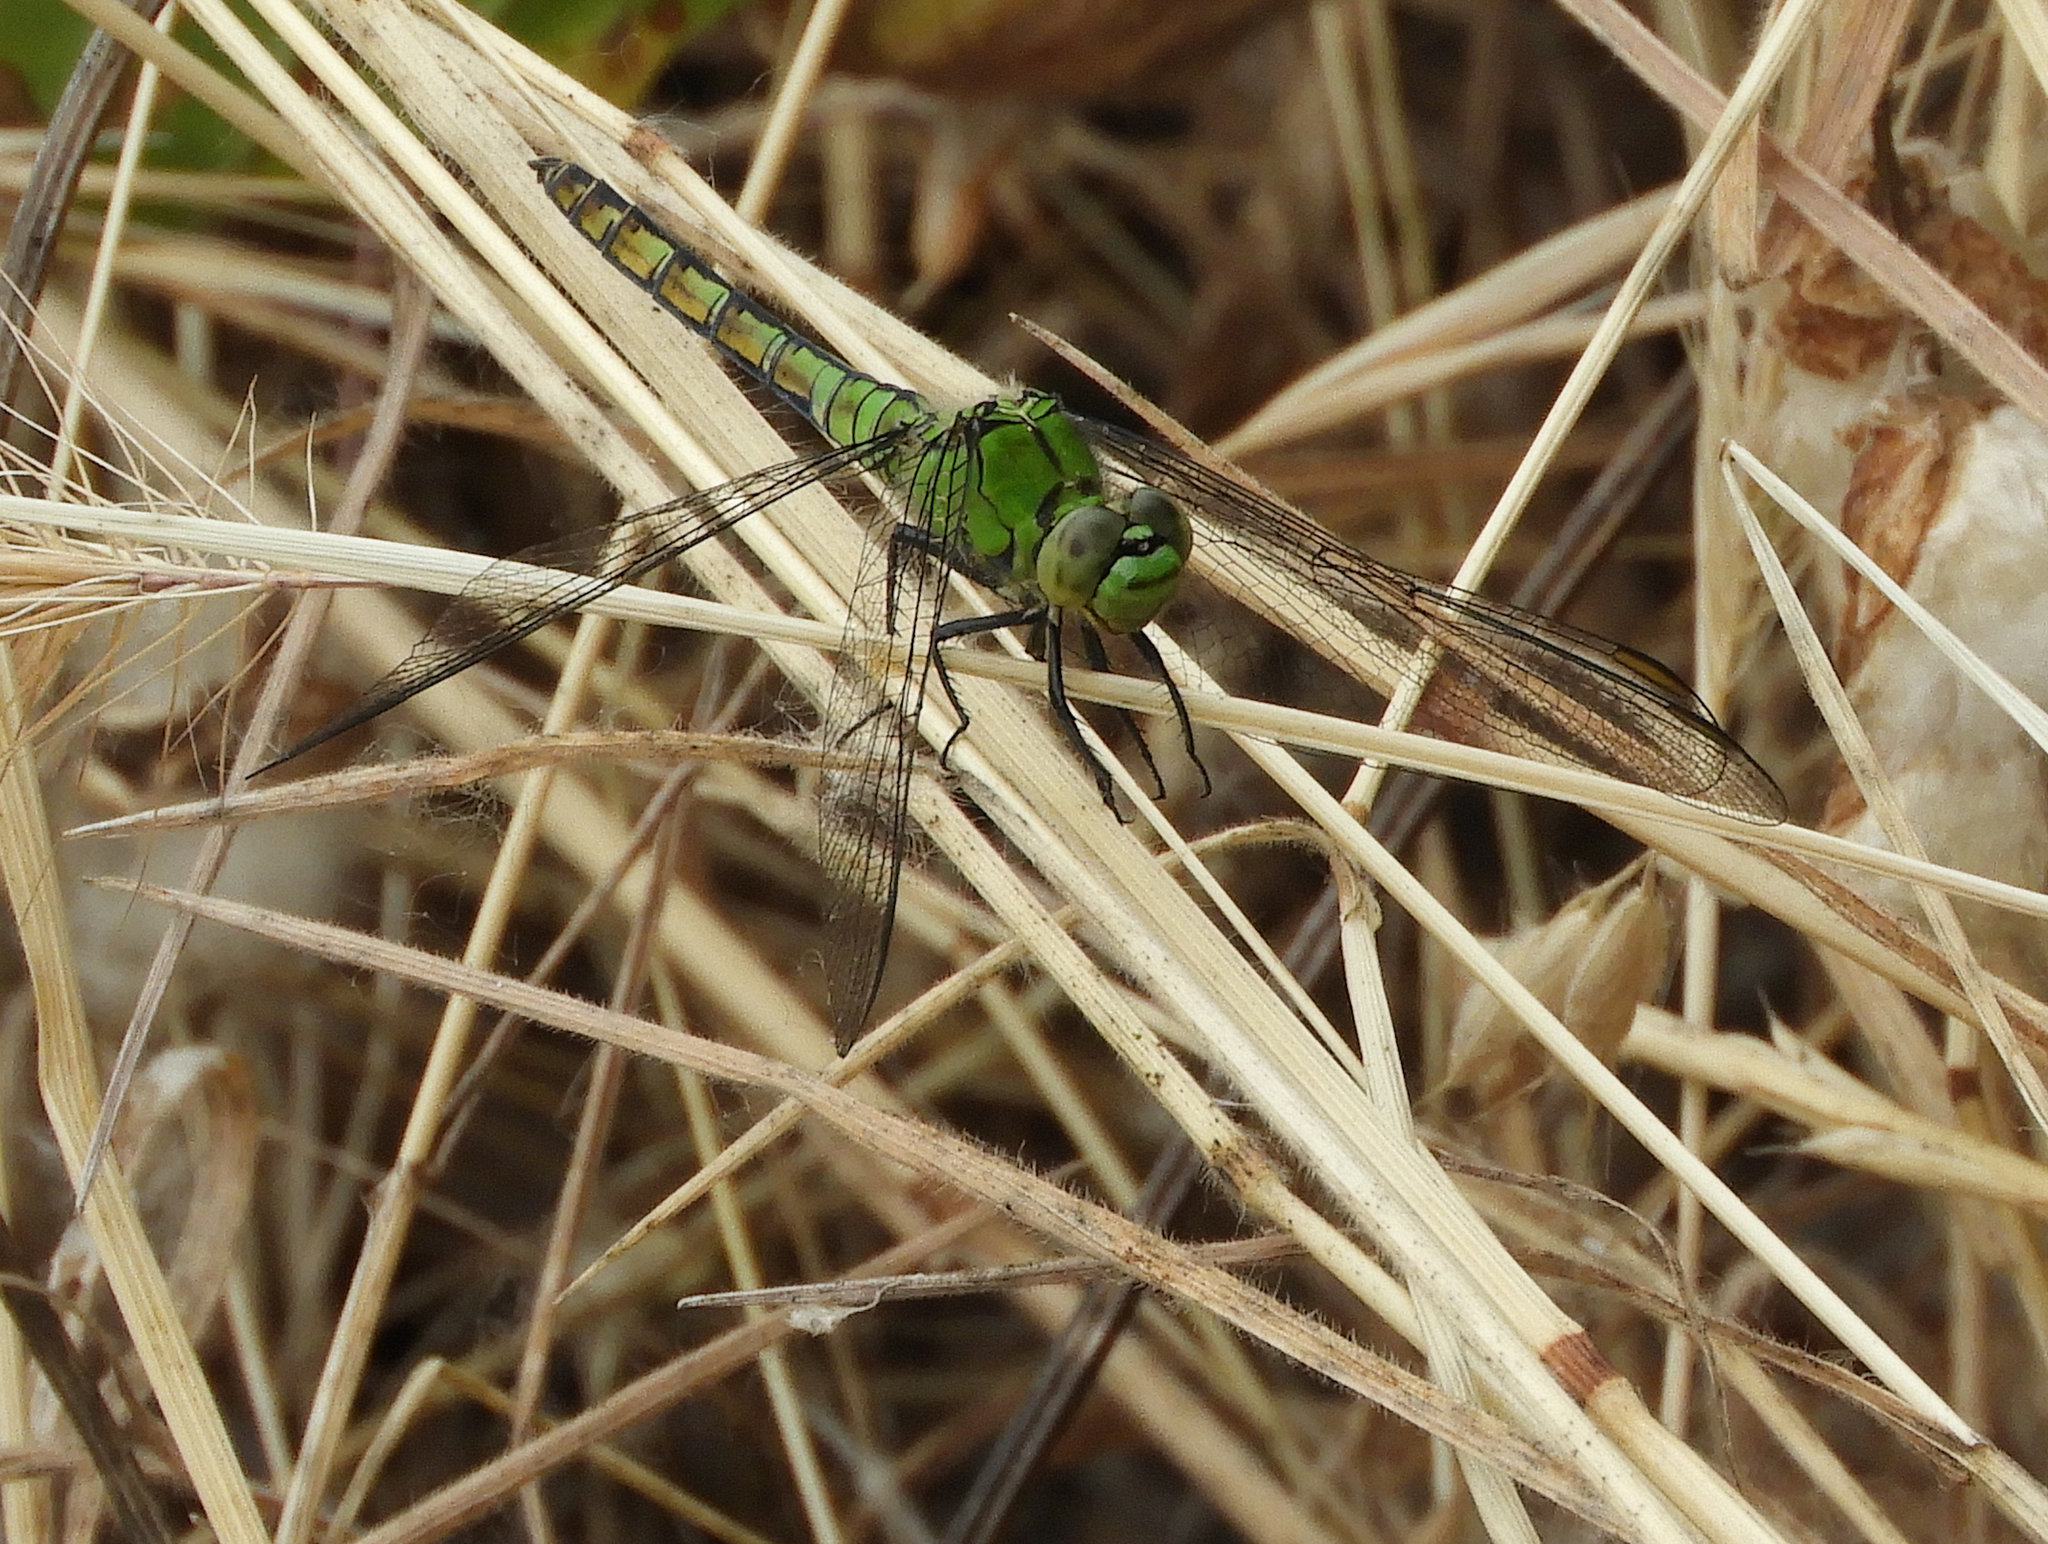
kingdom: Animalia
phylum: Arthropoda
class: Insecta
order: Odonata
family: Libellulidae
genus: Erythemis
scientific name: Erythemis collocata
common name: Western pondhawk
